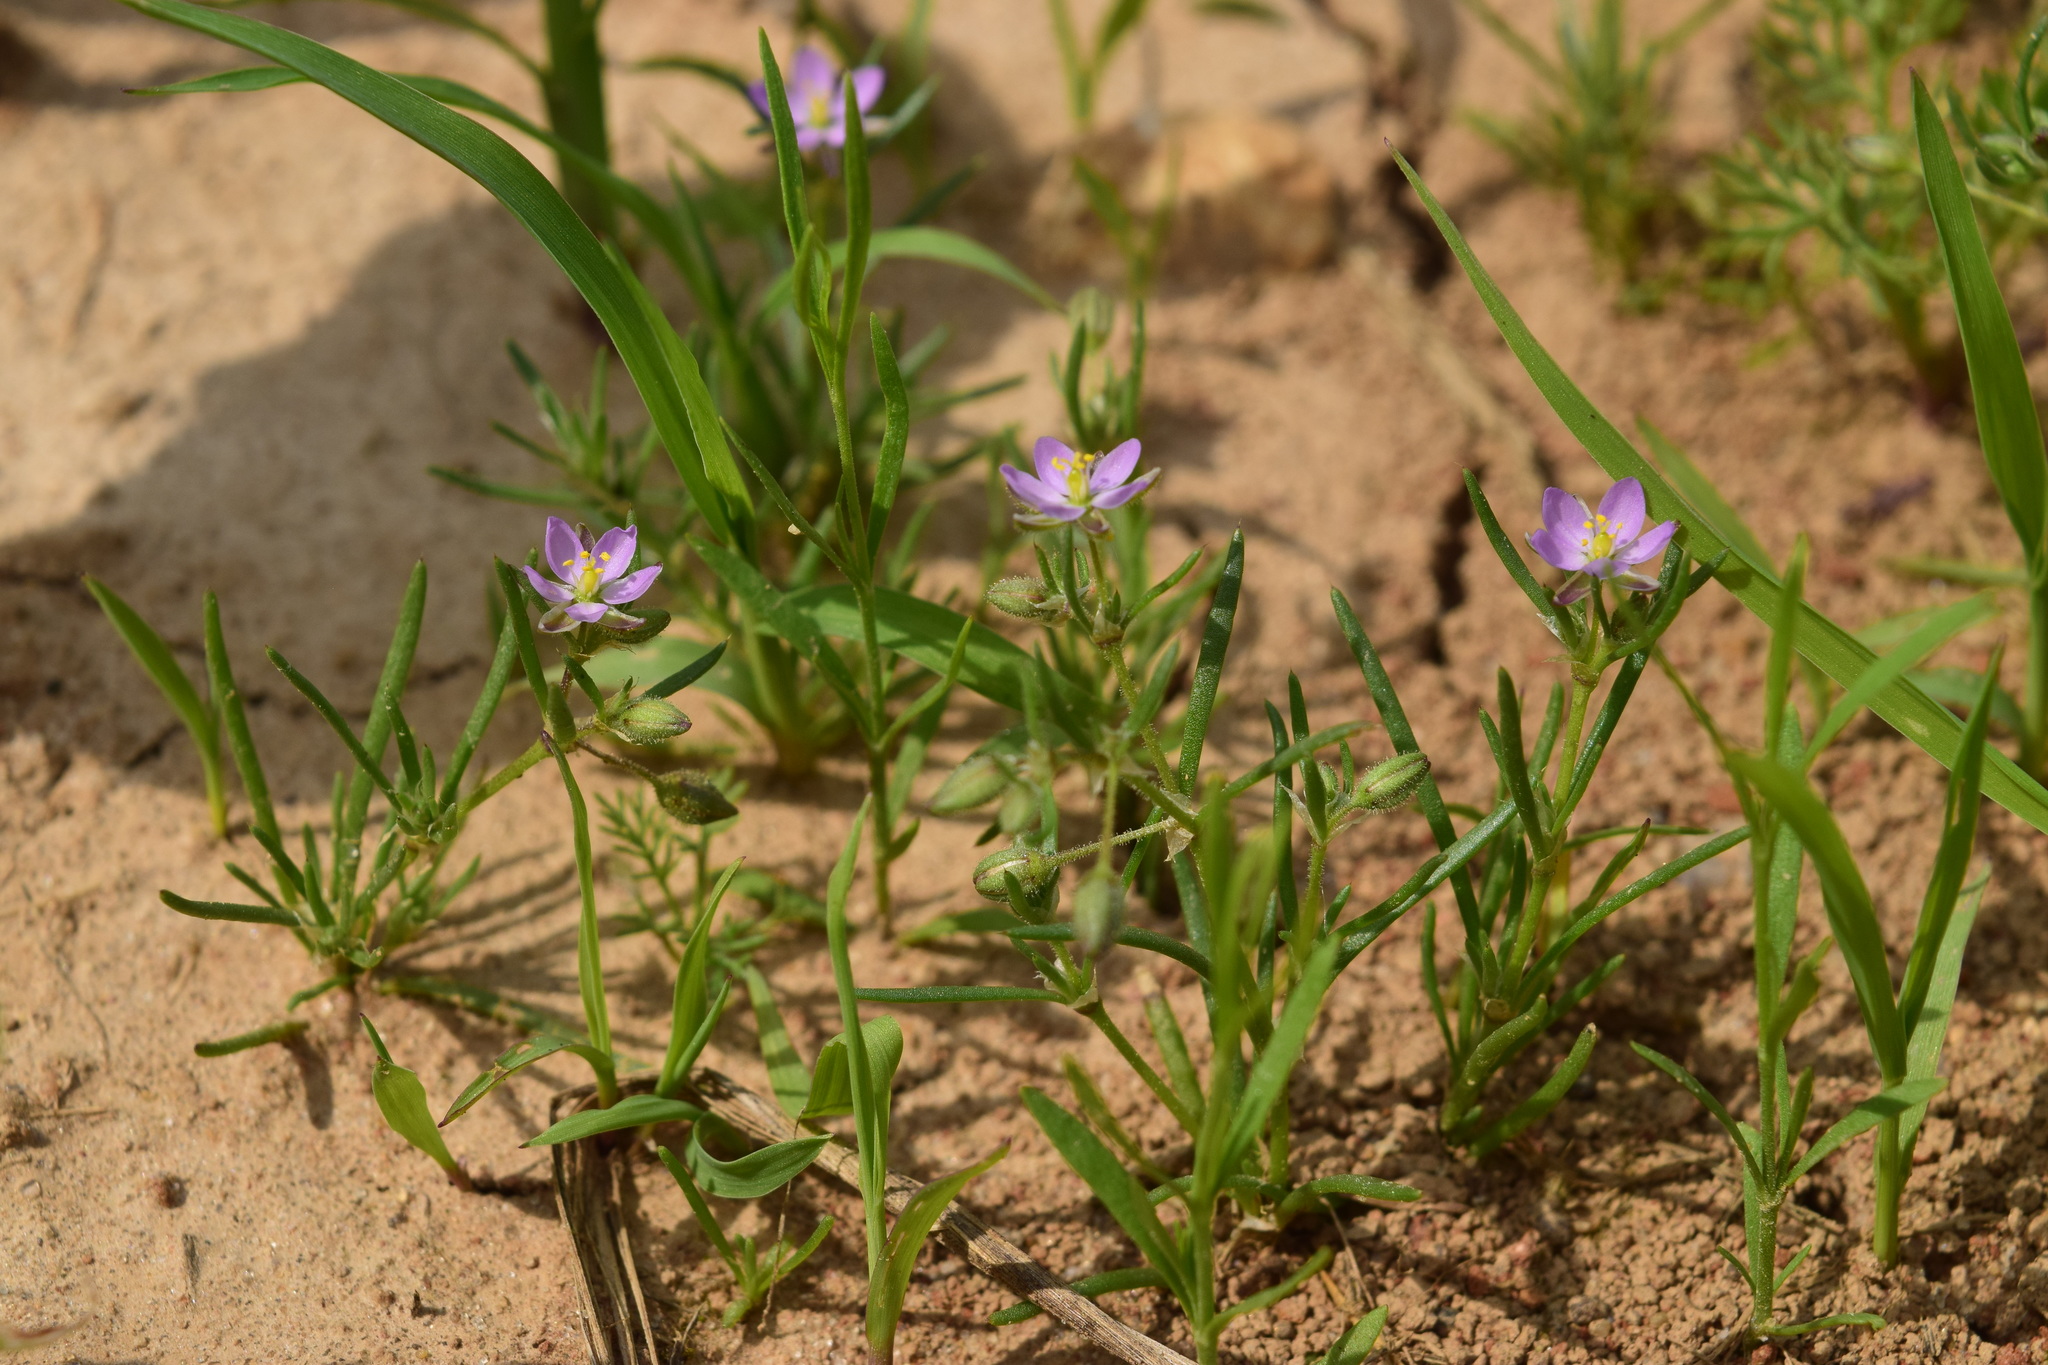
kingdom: Plantae
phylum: Tracheophyta
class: Magnoliopsida
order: Caryophyllales
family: Caryophyllaceae
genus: Spergularia
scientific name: Spergularia rubra
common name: Red sand-spurrey
